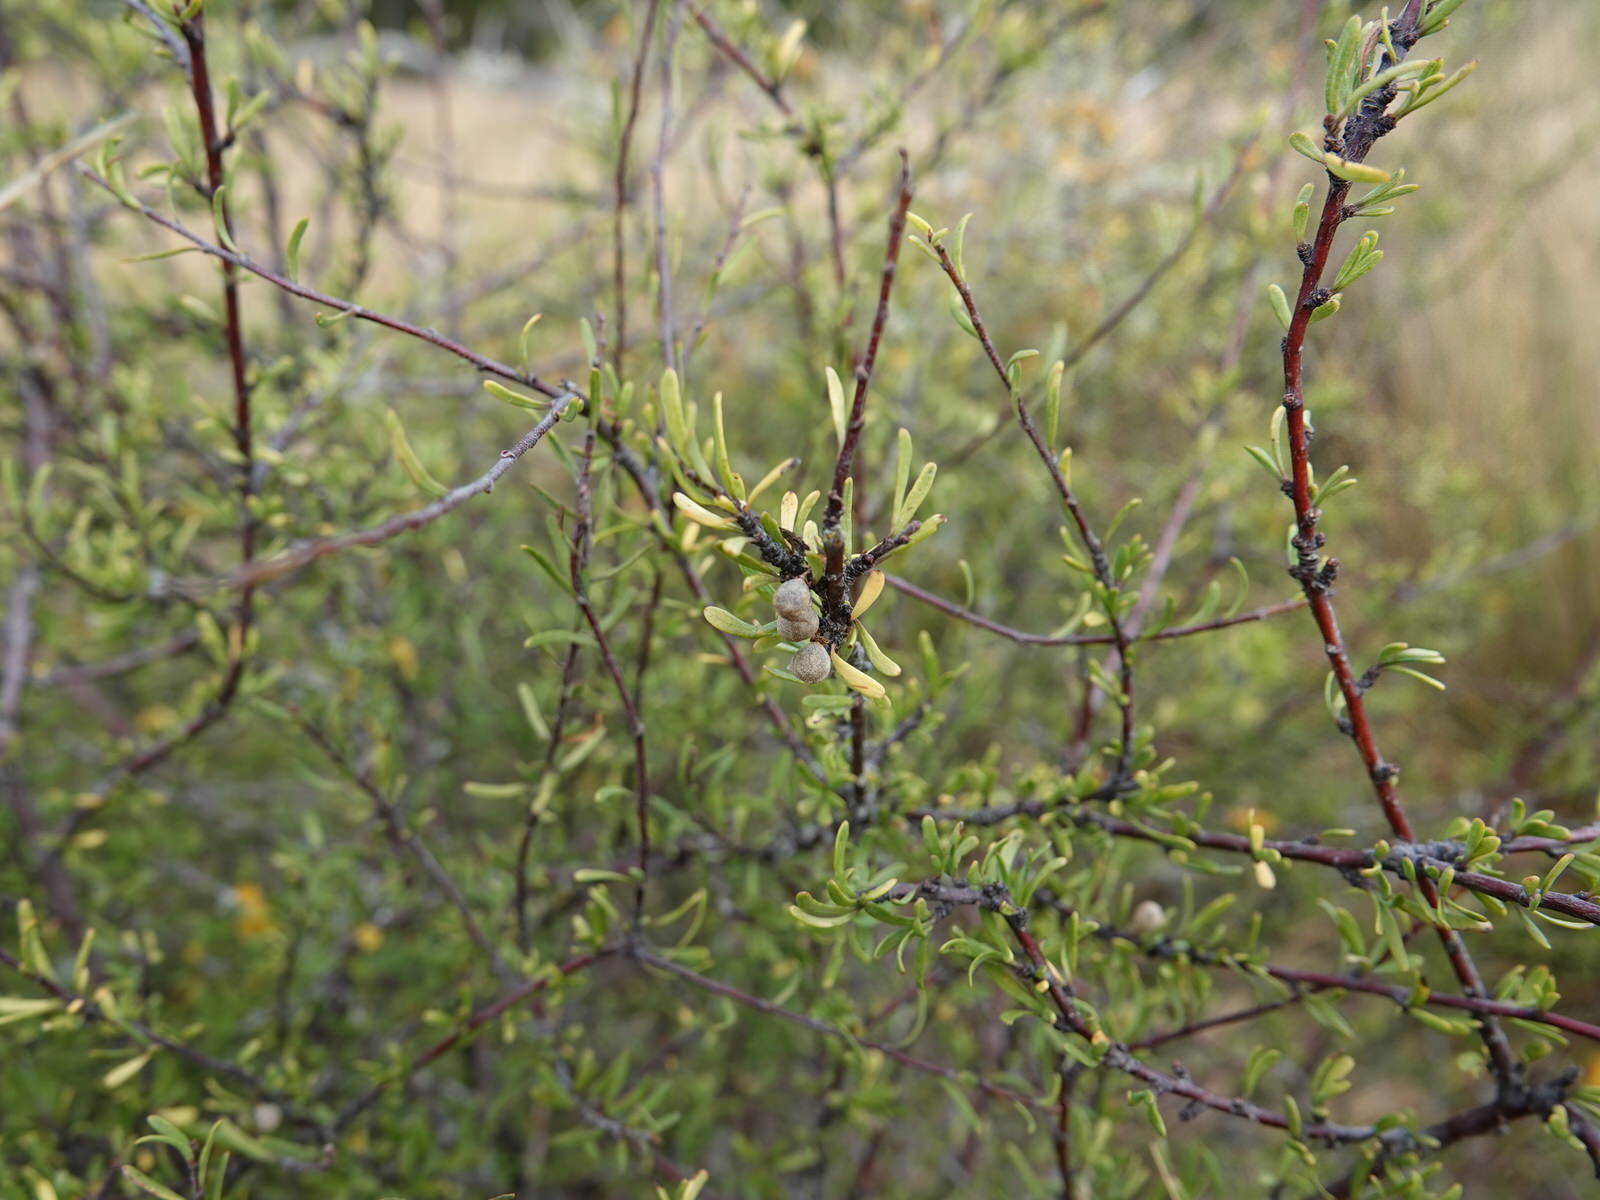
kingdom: Plantae
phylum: Tracheophyta
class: Magnoliopsida
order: Malvales
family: Malvaceae
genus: Plagianthus
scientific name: Plagianthus divaricatus
